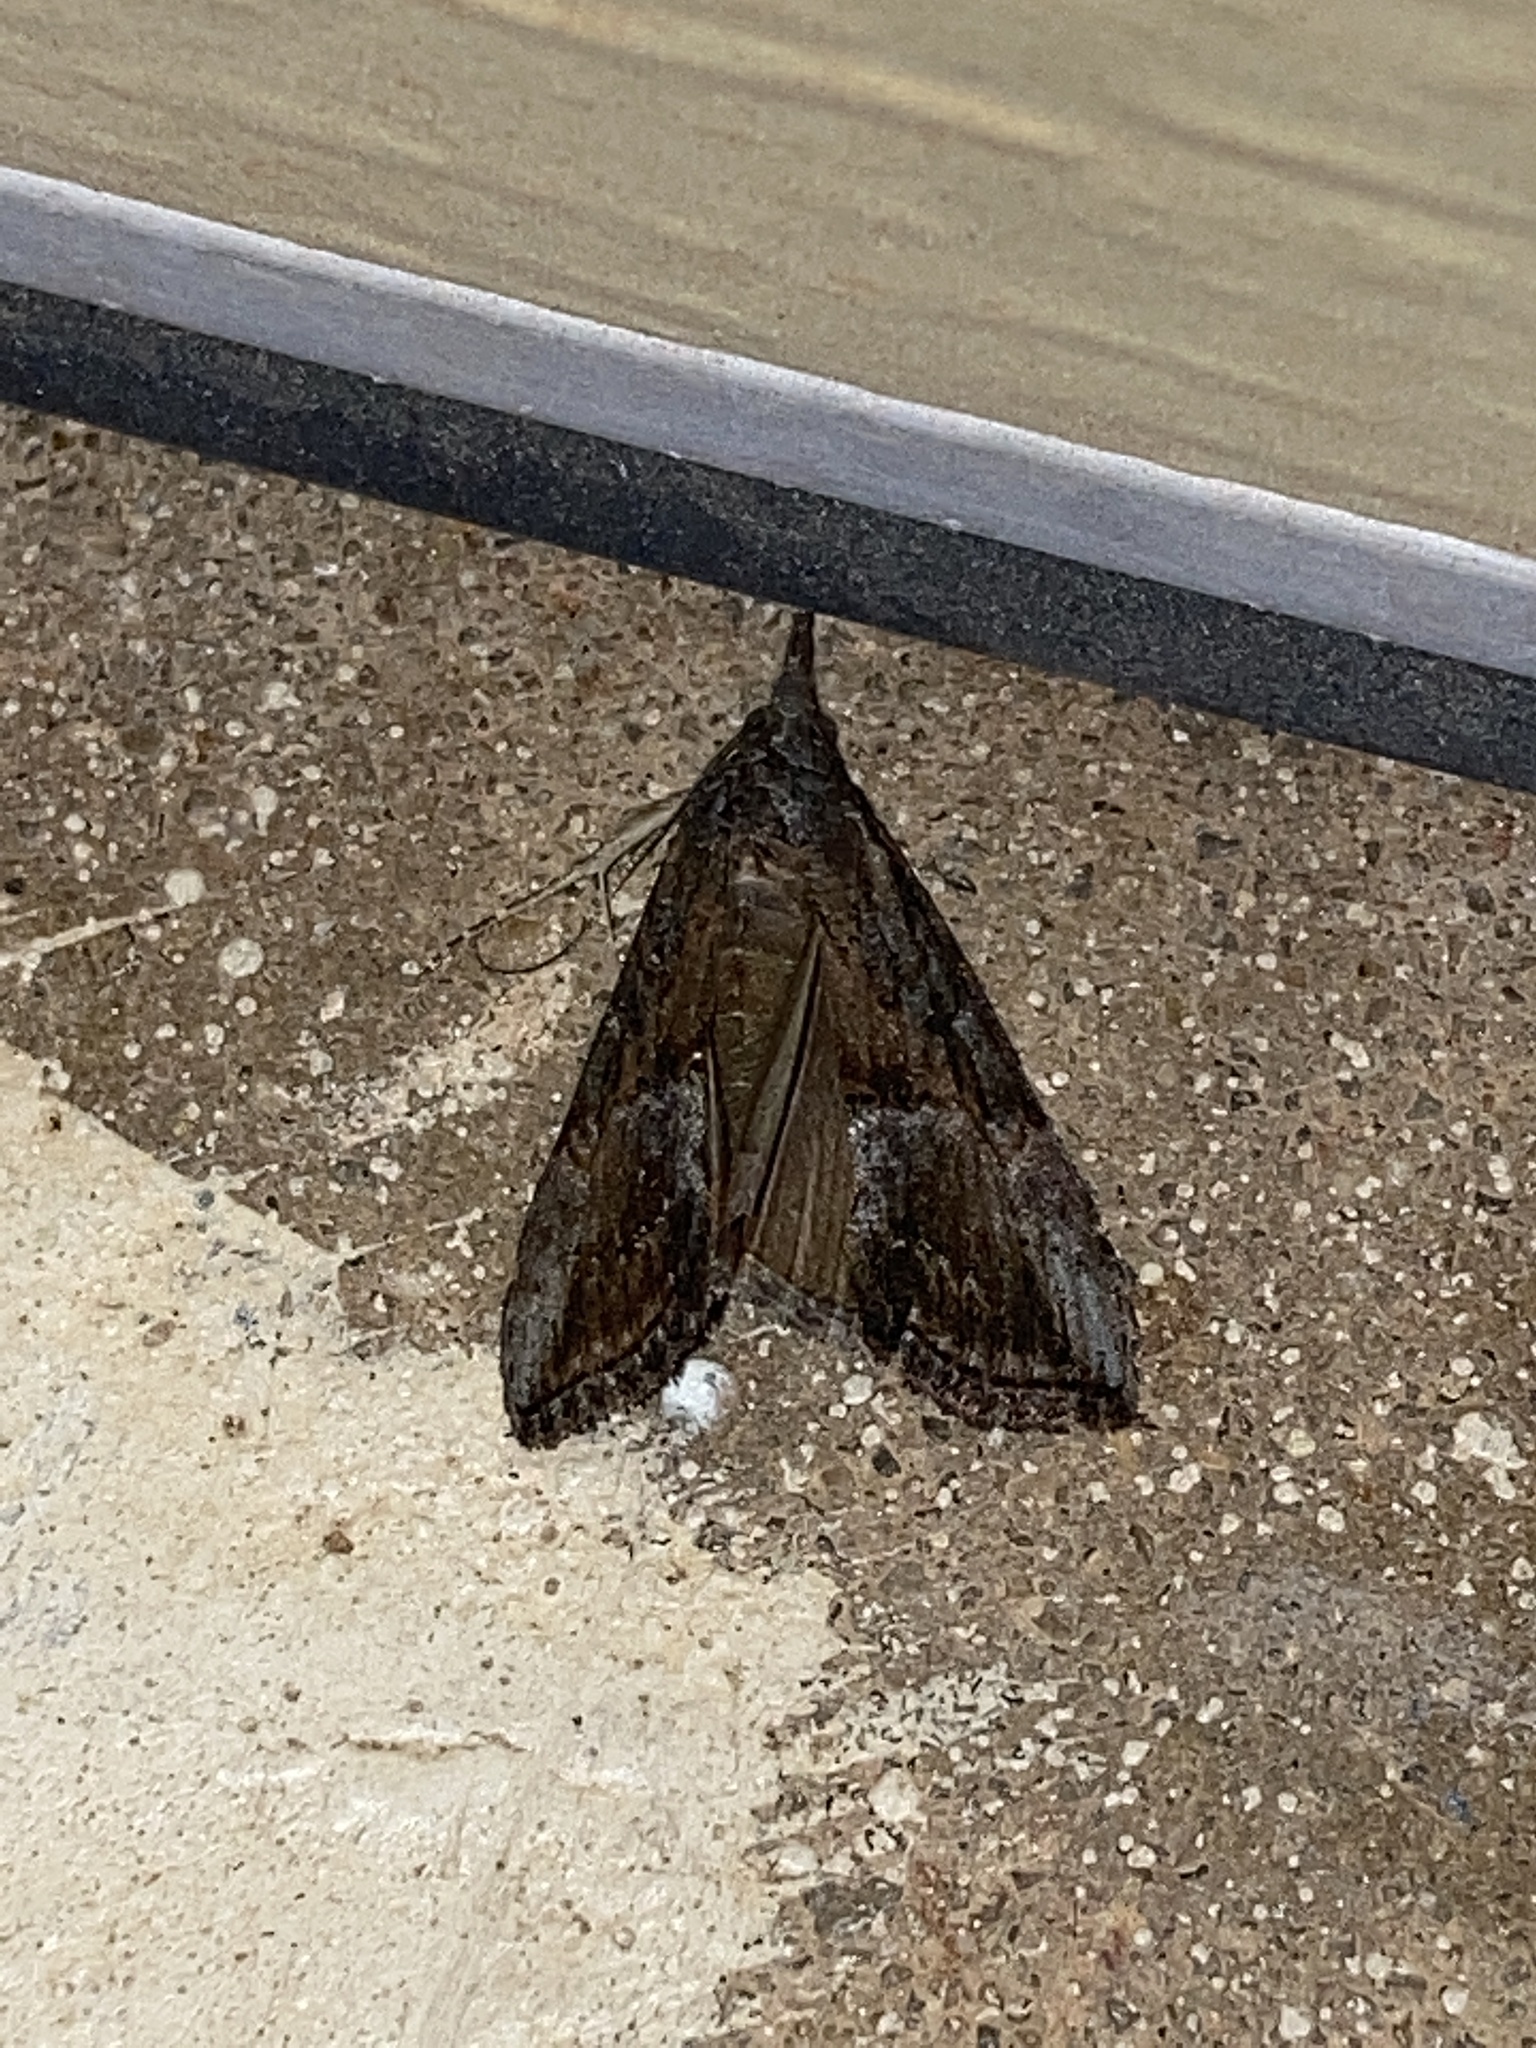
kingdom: Animalia
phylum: Arthropoda
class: Insecta
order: Lepidoptera
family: Erebidae
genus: Hypena
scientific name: Hypena scabra
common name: Green cloverworm
